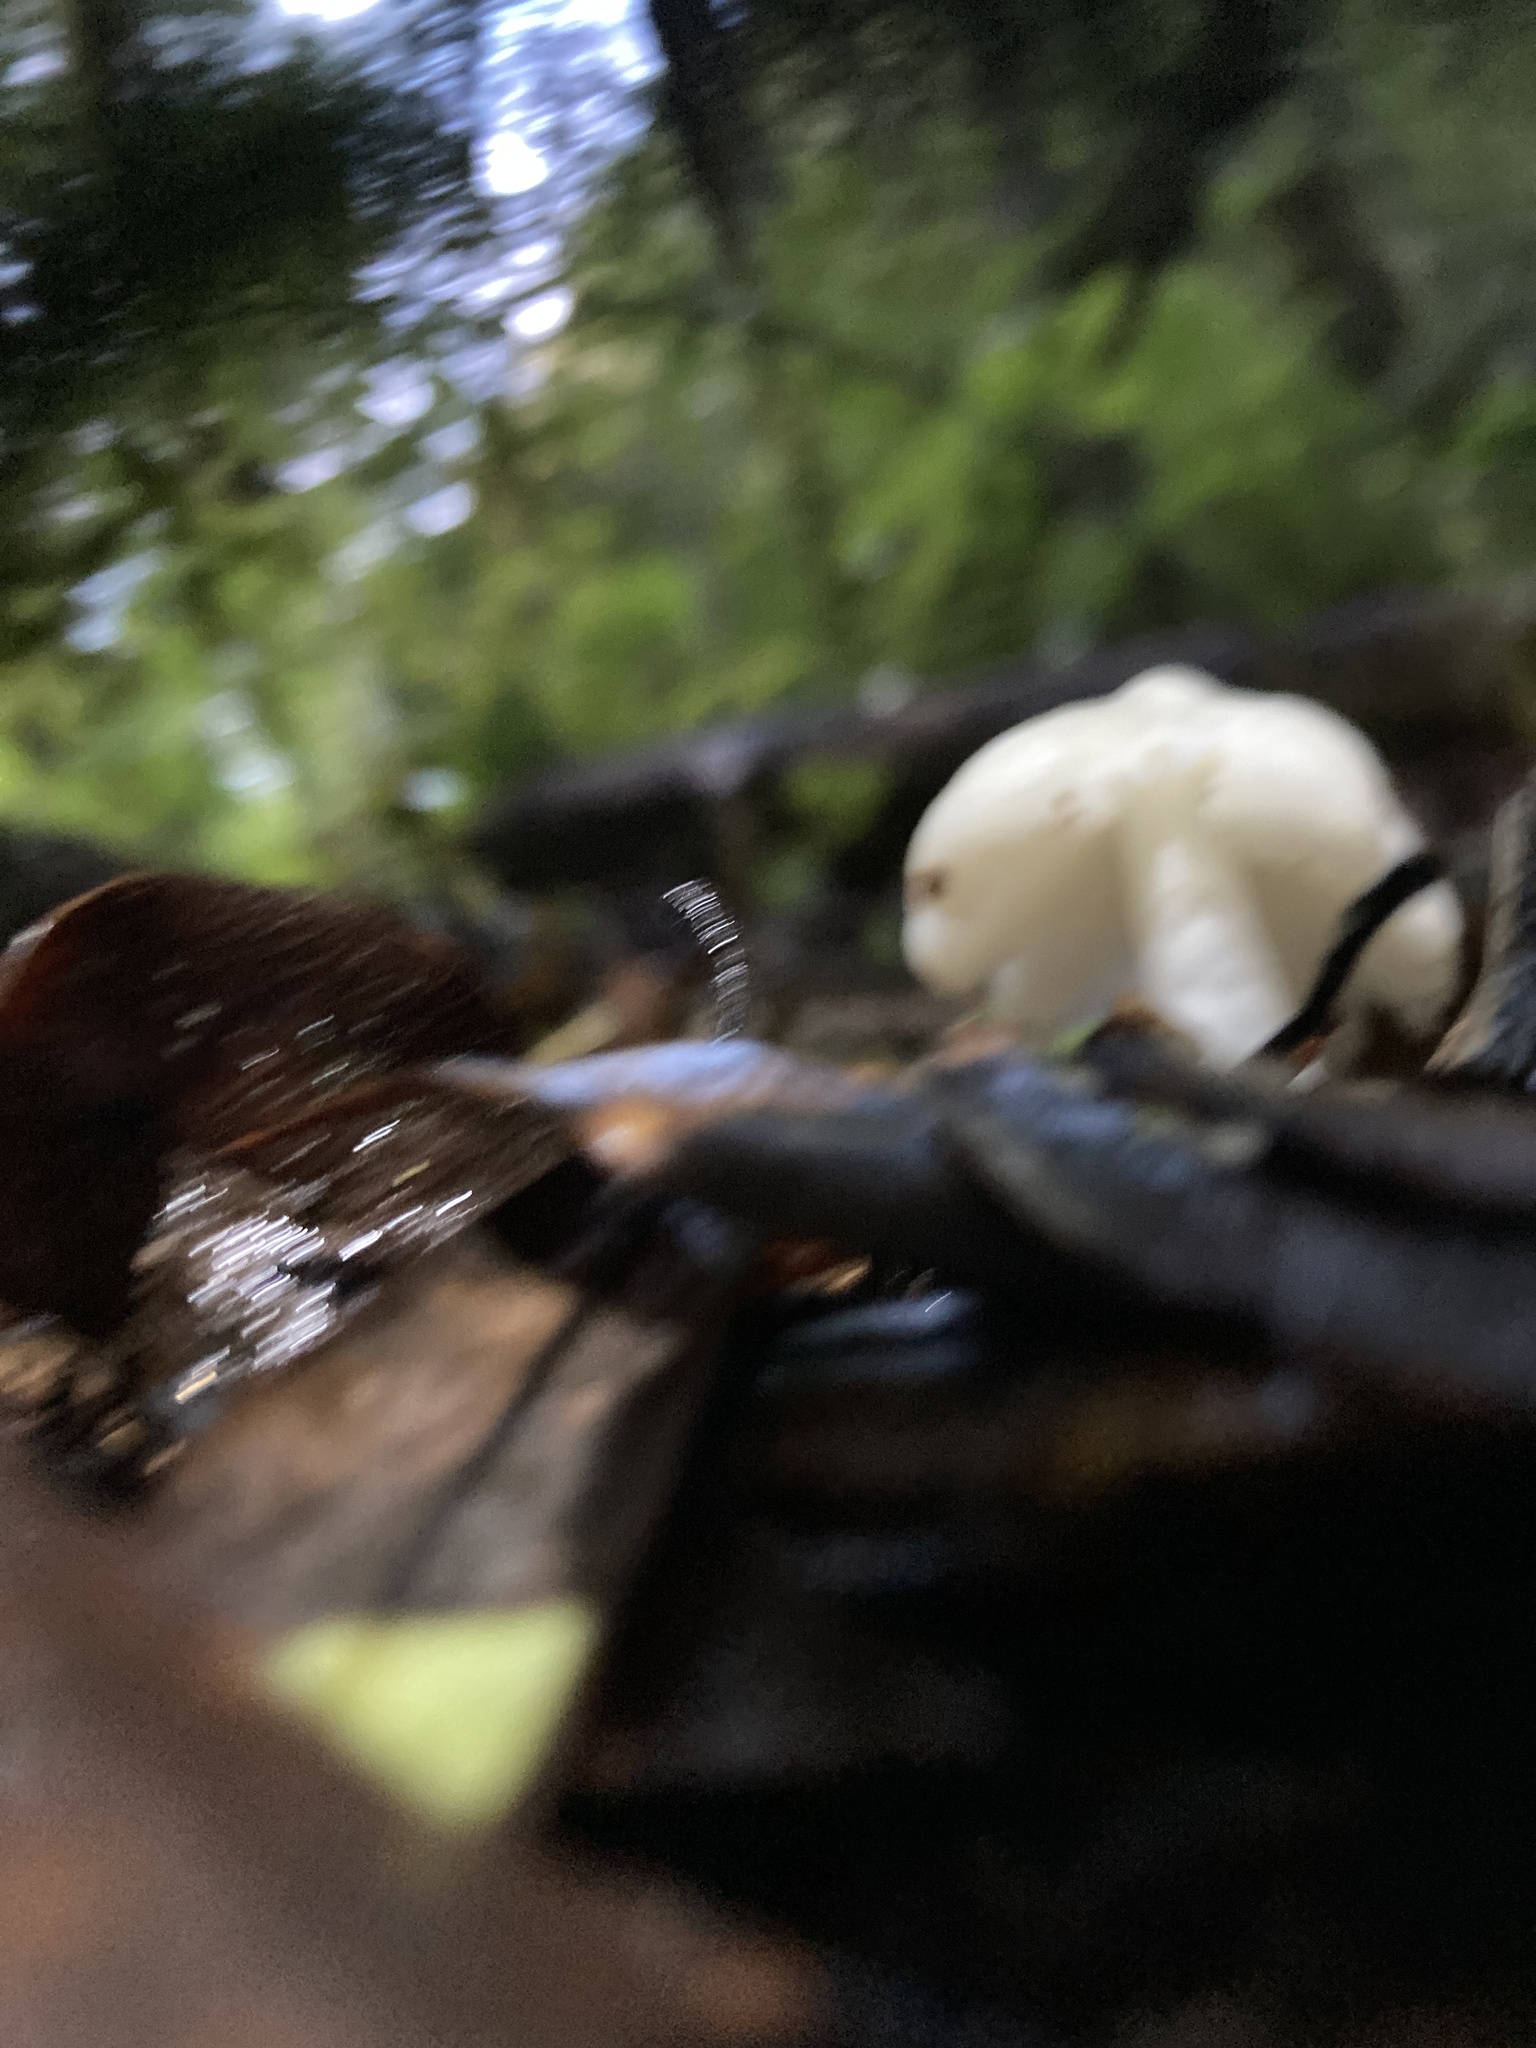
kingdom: Fungi
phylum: Basidiomycota
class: Agaricomycetes
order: Agaricales
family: Hygrophoraceae
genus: Humidicutis
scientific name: Humidicutis mavis
